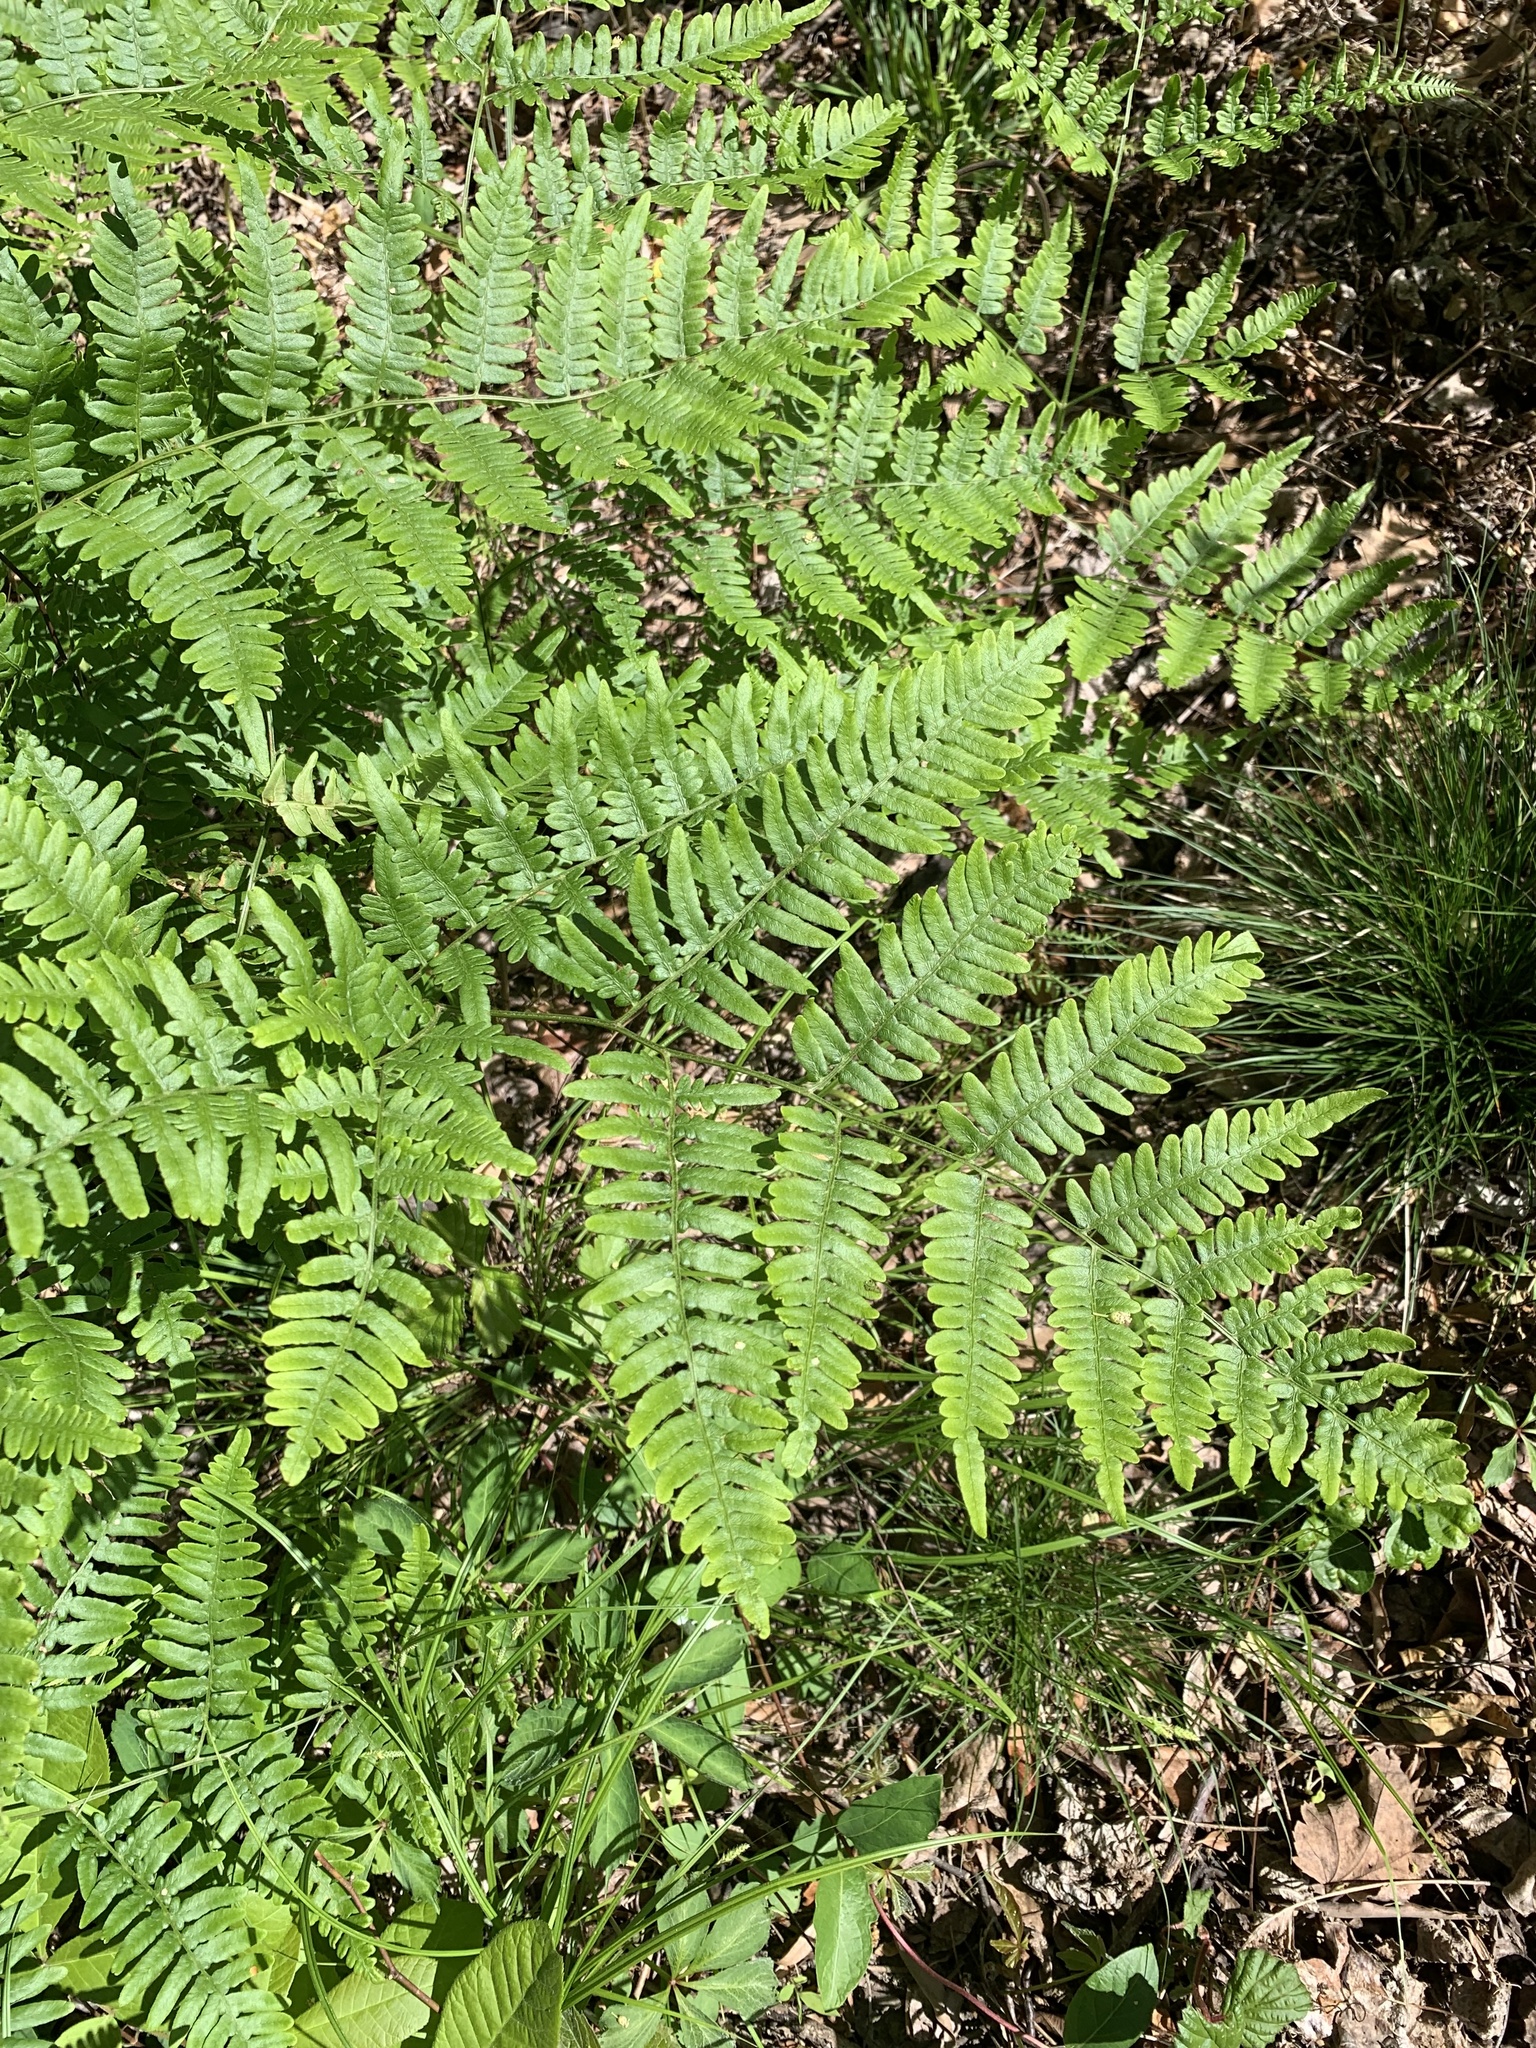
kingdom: Plantae
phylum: Tracheophyta
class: Polypodiopsida
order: Polypodiales
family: Dennstaedtiaceae
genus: Pteridium
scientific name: Pteridium aquilinum
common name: Bracken
